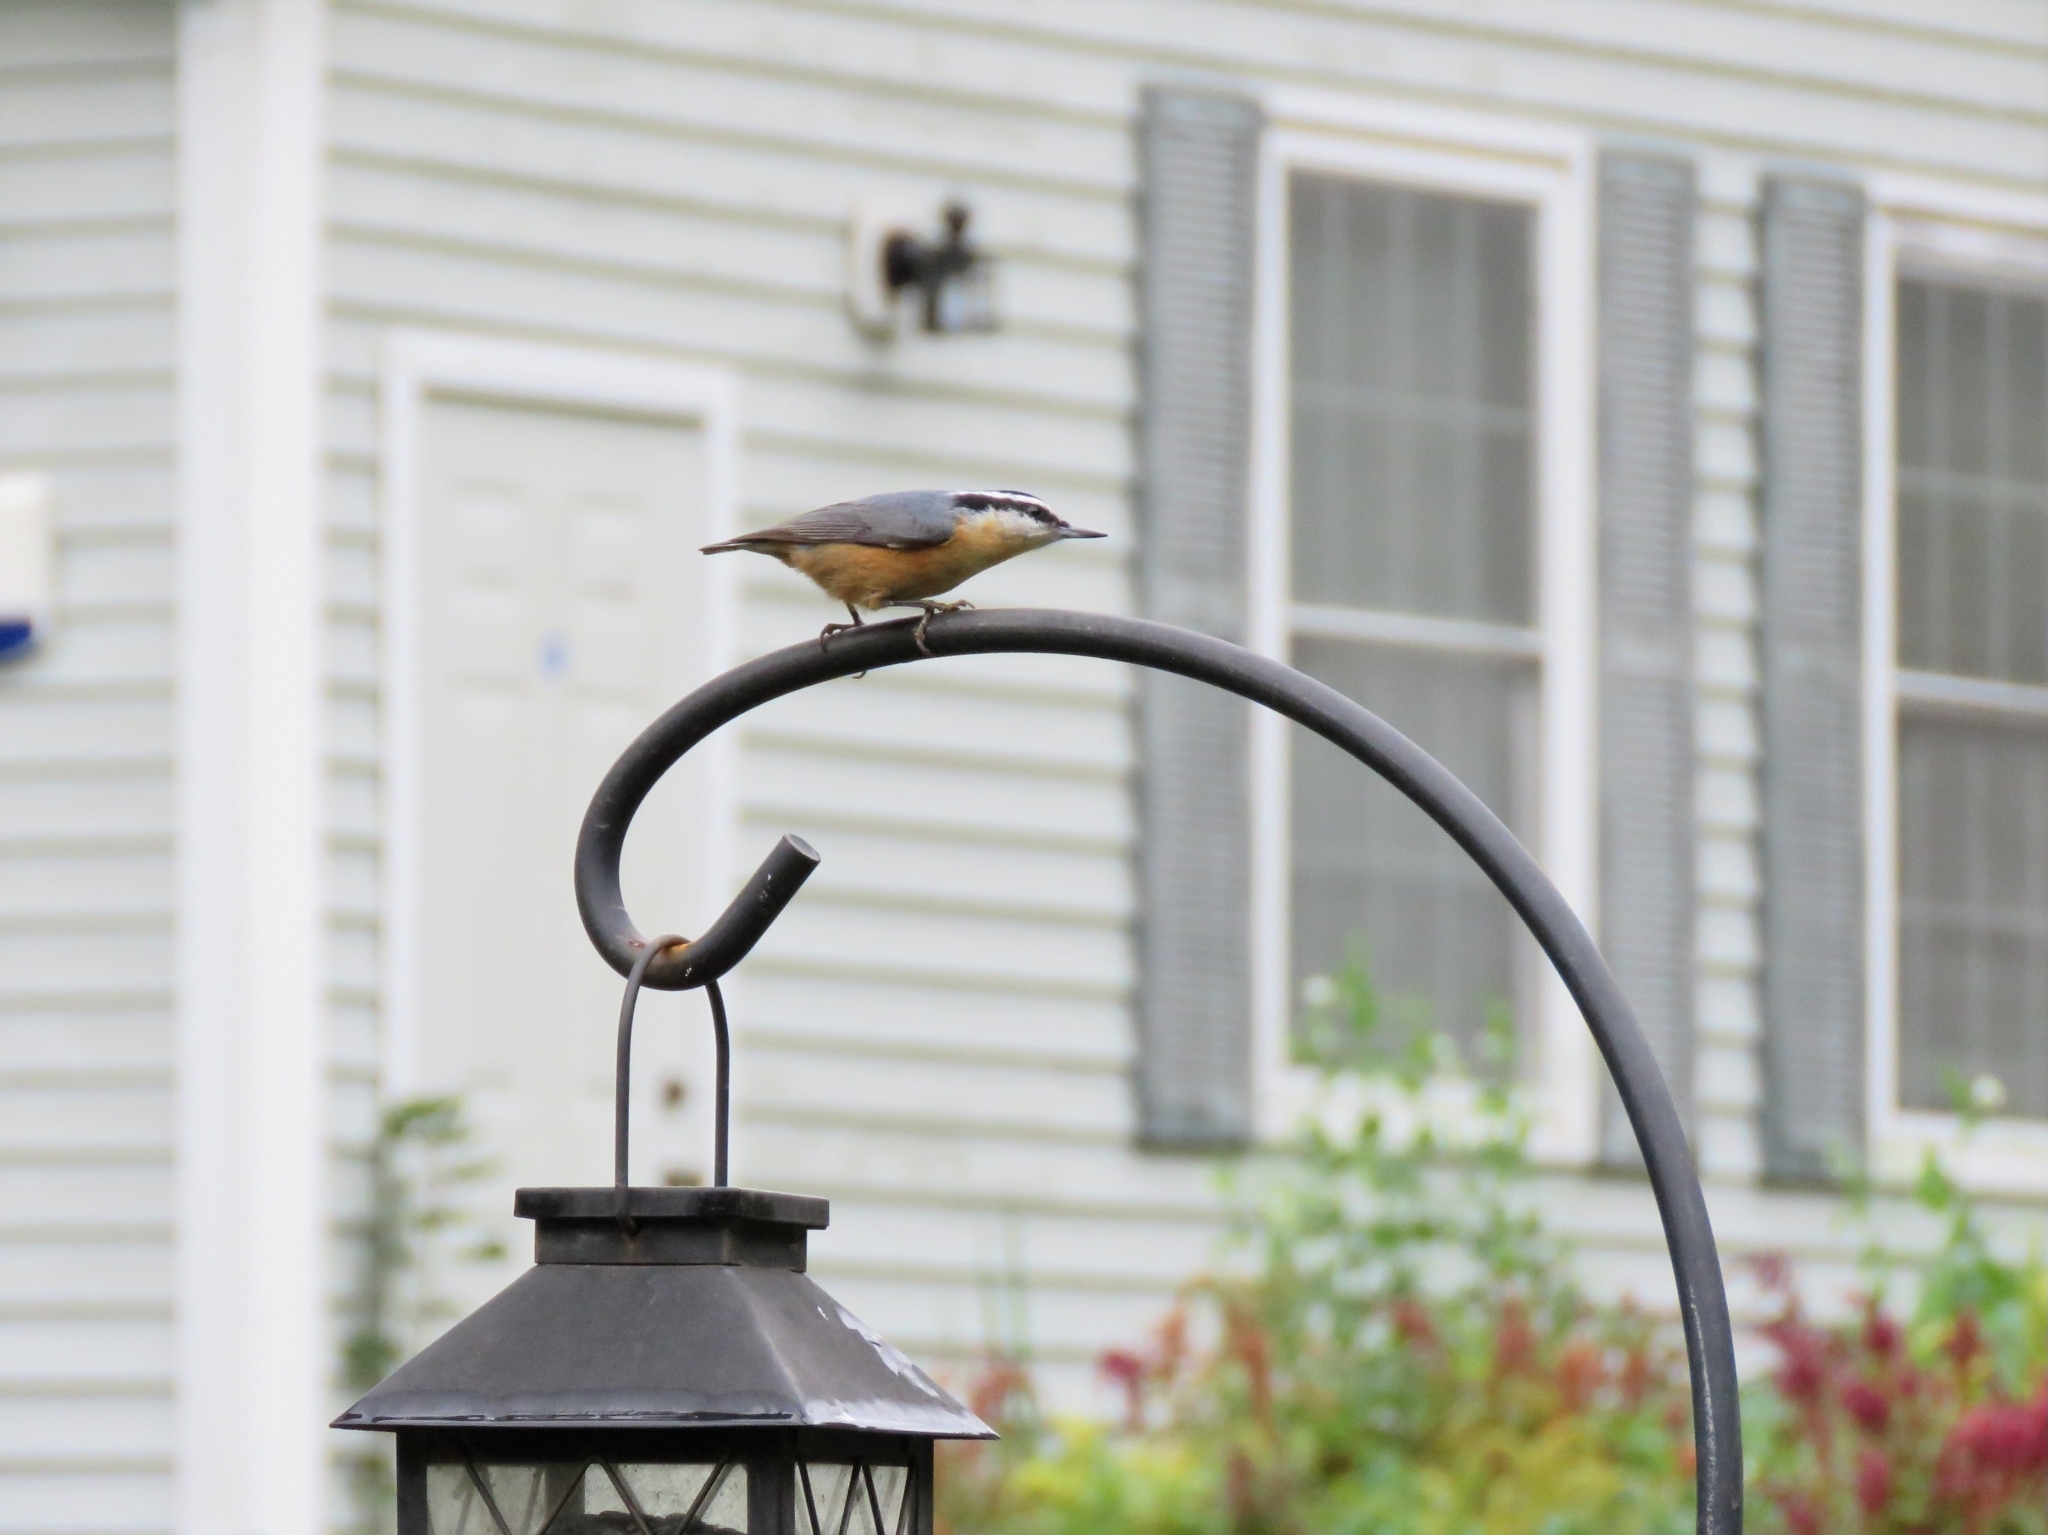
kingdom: Animalia
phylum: Chordata
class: Aves
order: Passeriformes
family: Sittidae
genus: Sitta
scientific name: Sitta canadensis
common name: Red-breasted nuthatch
